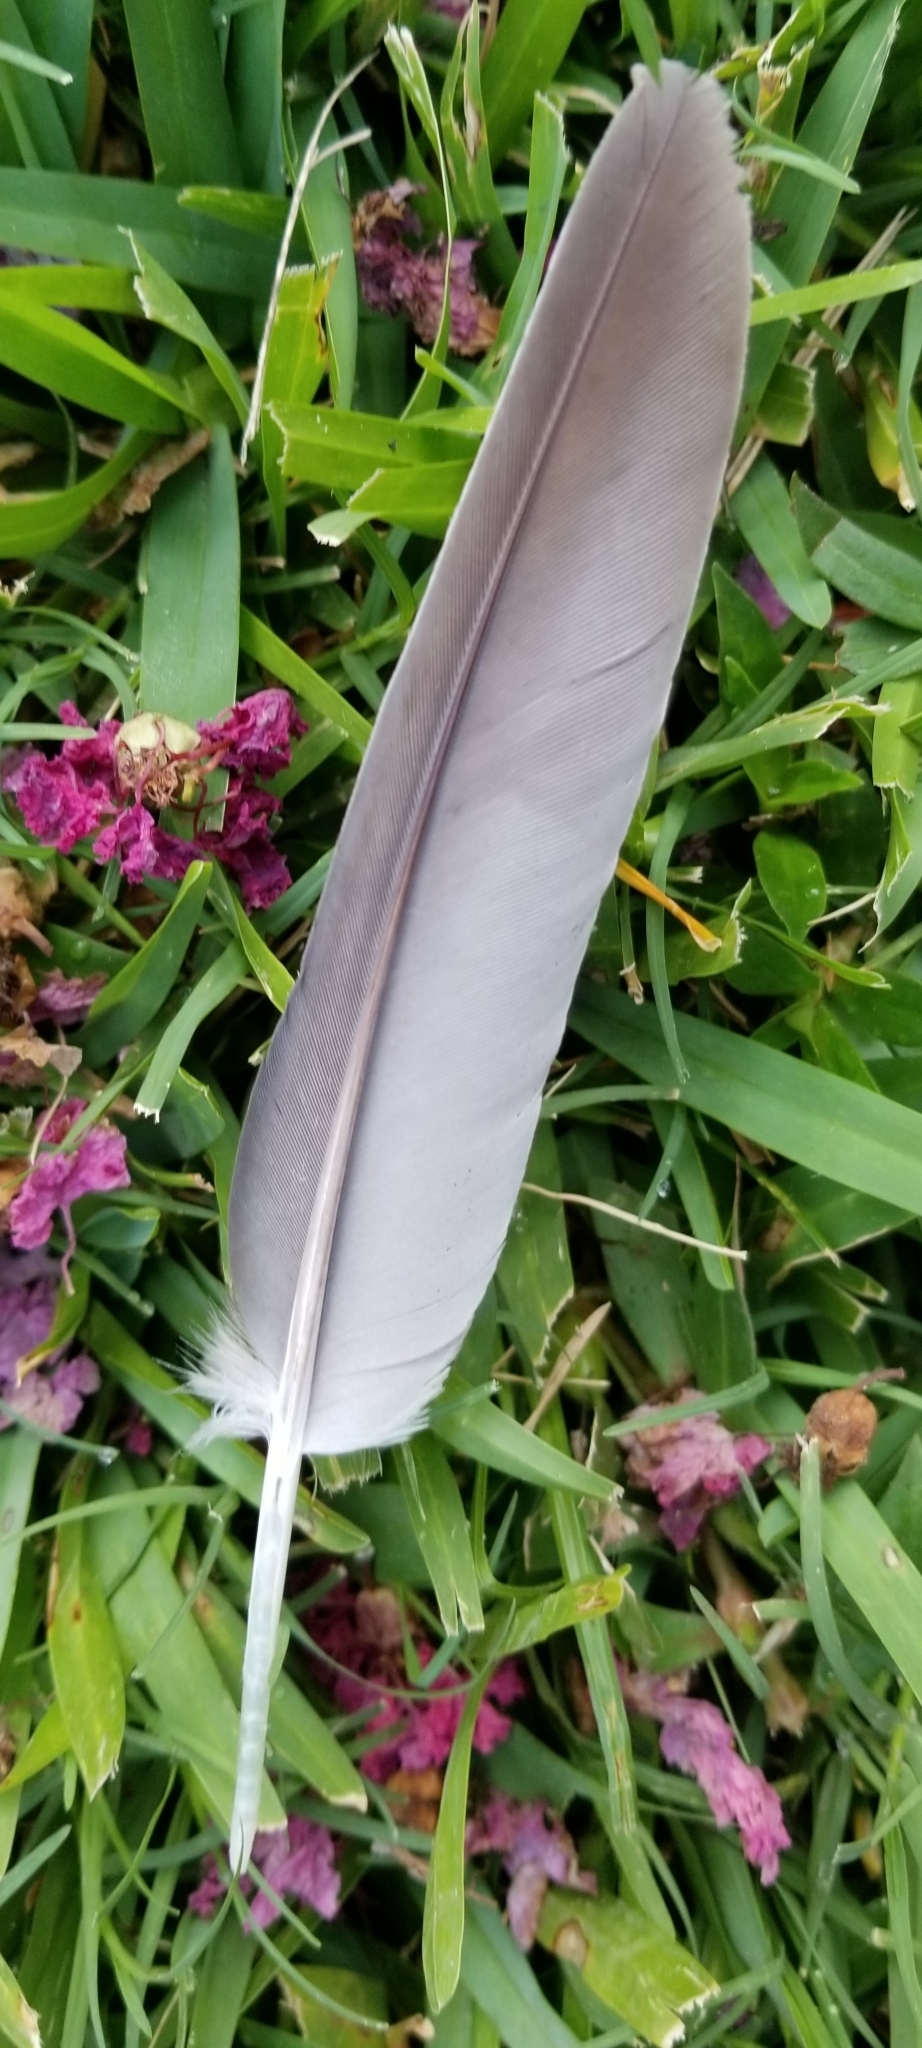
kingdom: Animalia
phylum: Chordata
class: Aves
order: Columbiformes
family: Columbidae
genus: Zenaida
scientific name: Zenaida asiatica
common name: White-winged dove
